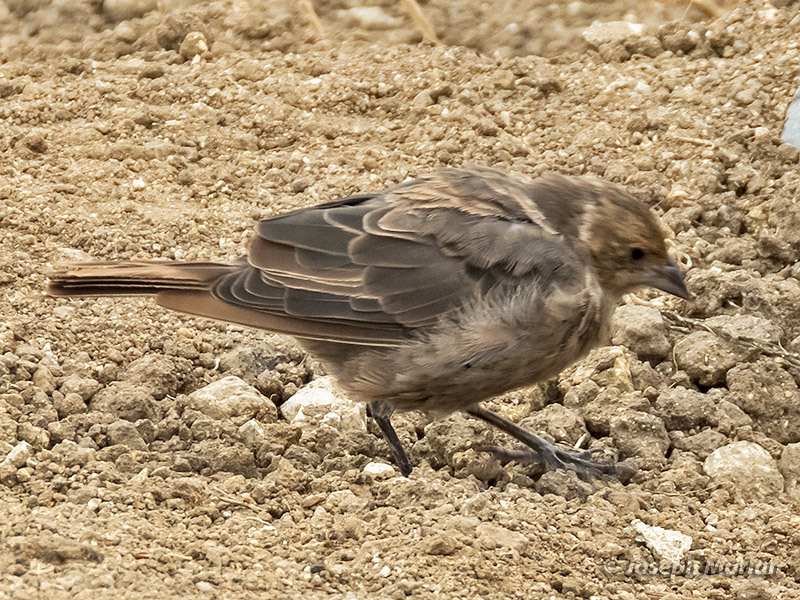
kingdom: Animalia
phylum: Chordata
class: Aves
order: Passeriformes
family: Icteridae
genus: Molothrus
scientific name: Molothrus ater
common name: Brown-headed cowbird
